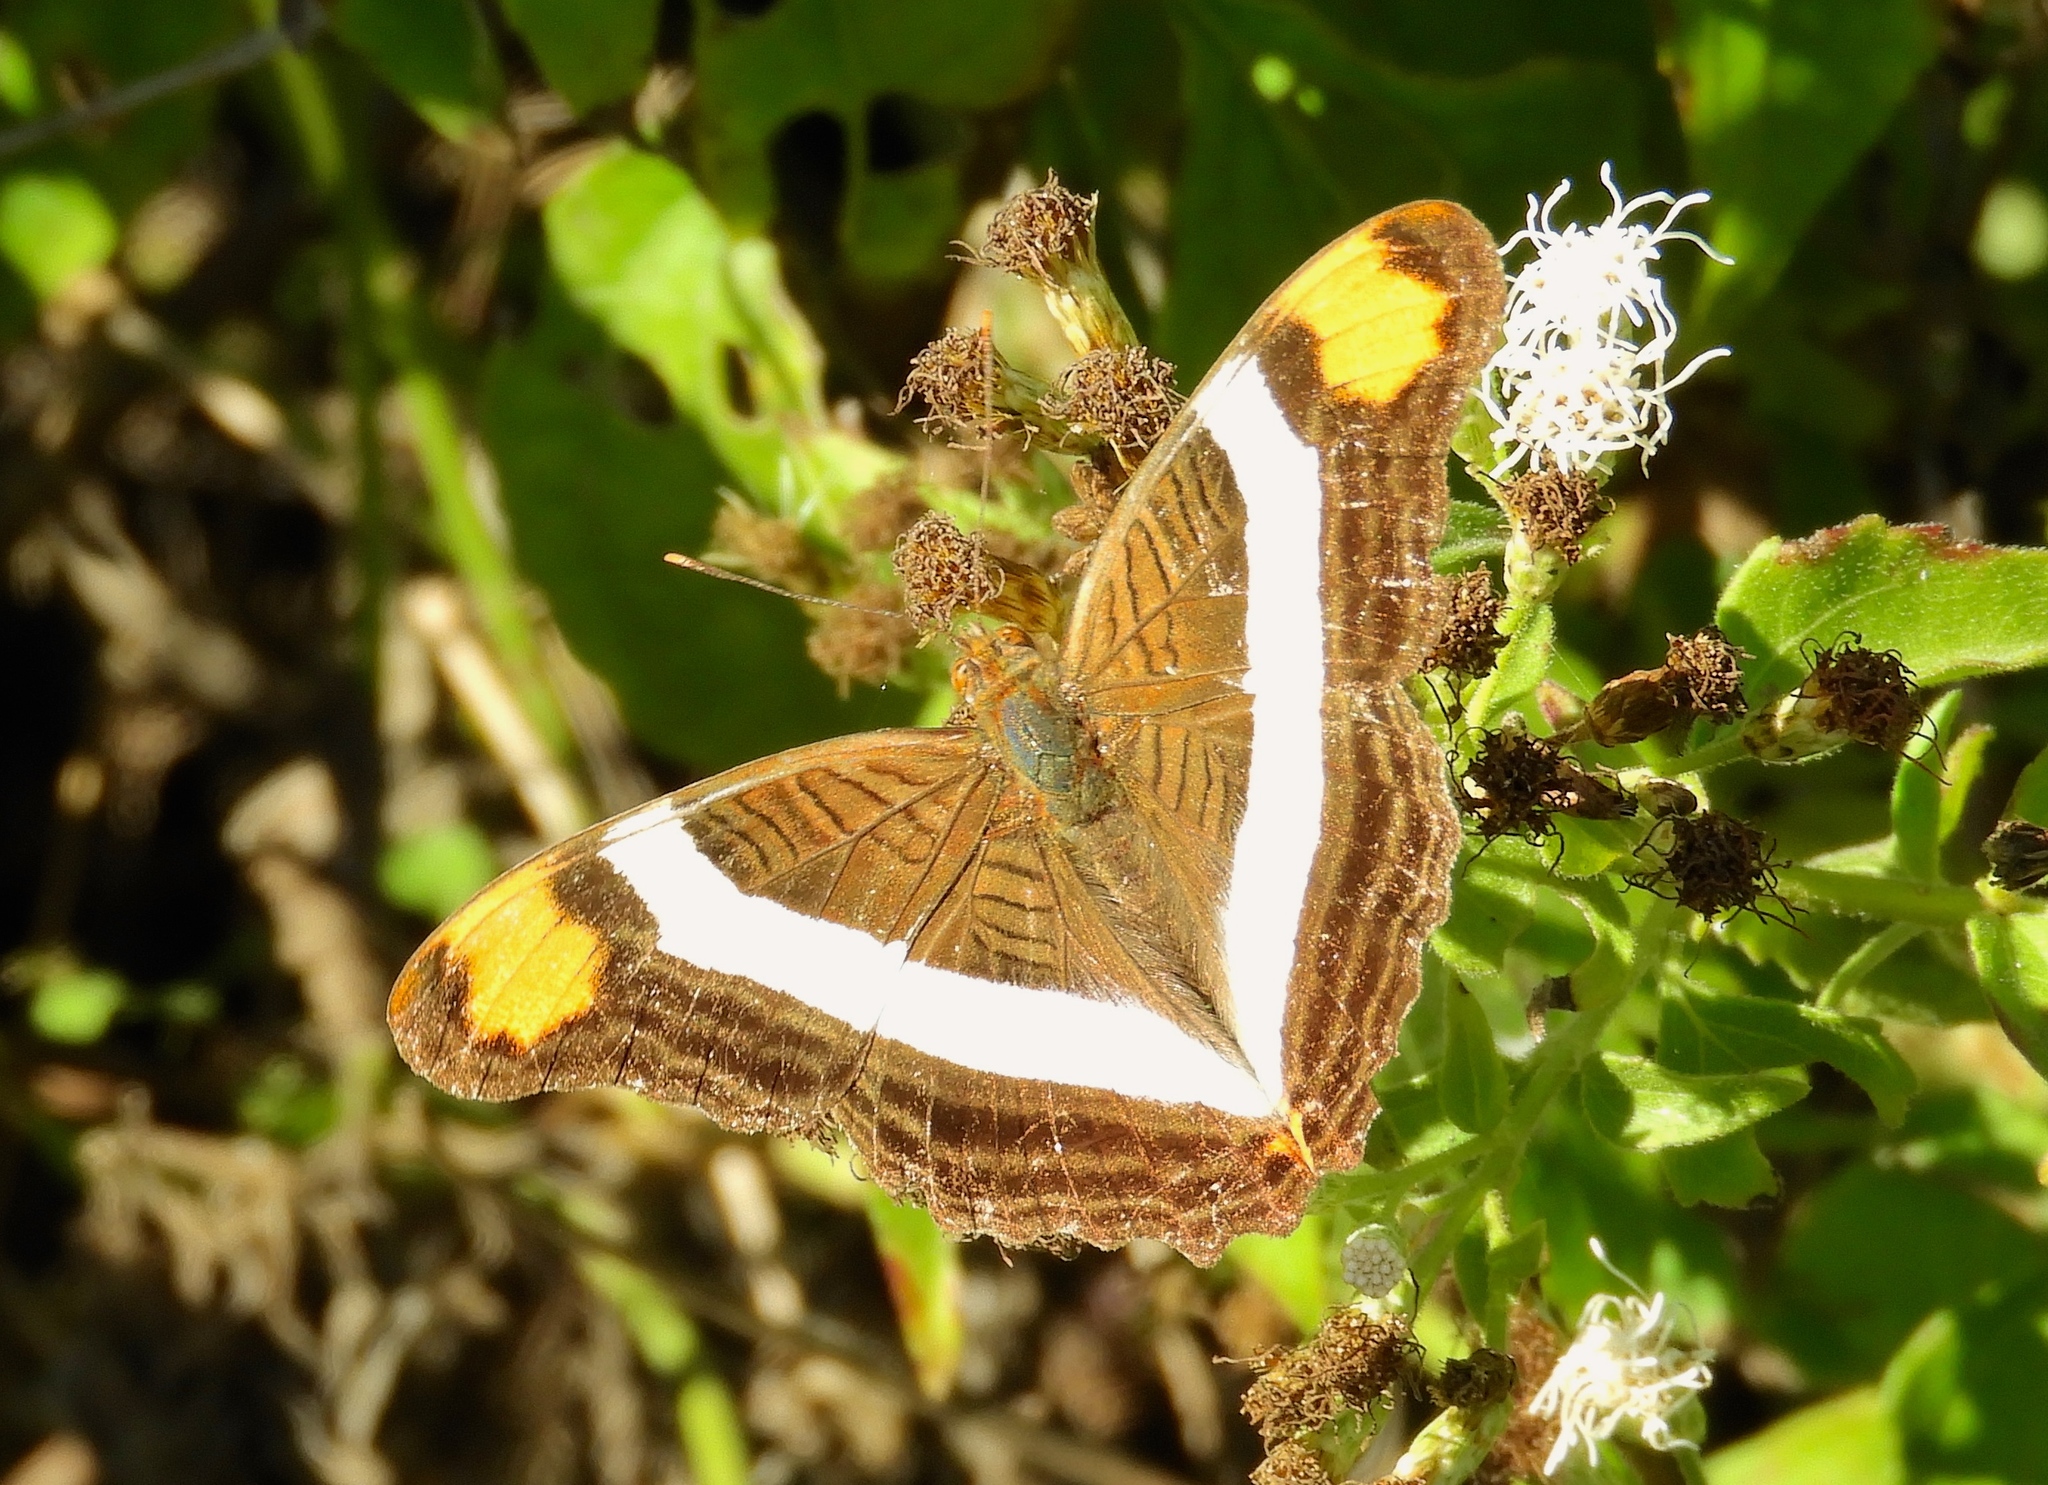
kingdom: Animalia
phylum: Arthropoda
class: Insecta
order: Lepidoptera
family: Nymphalidae
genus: Limenitis
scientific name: Limenitis fessonia
